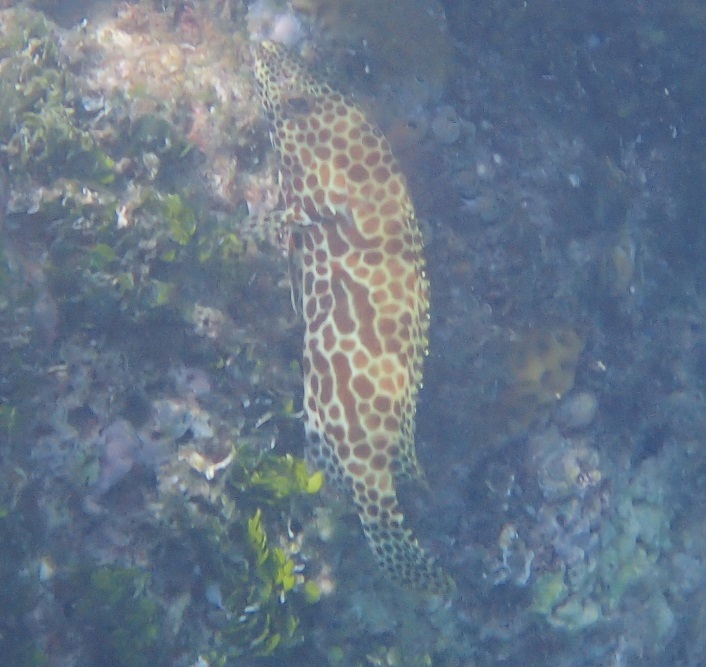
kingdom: Animalia
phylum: Chordata
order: Perciformes
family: Serranidae
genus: Epinephelus
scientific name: Epinephelus merra
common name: Honeycomb grouper
